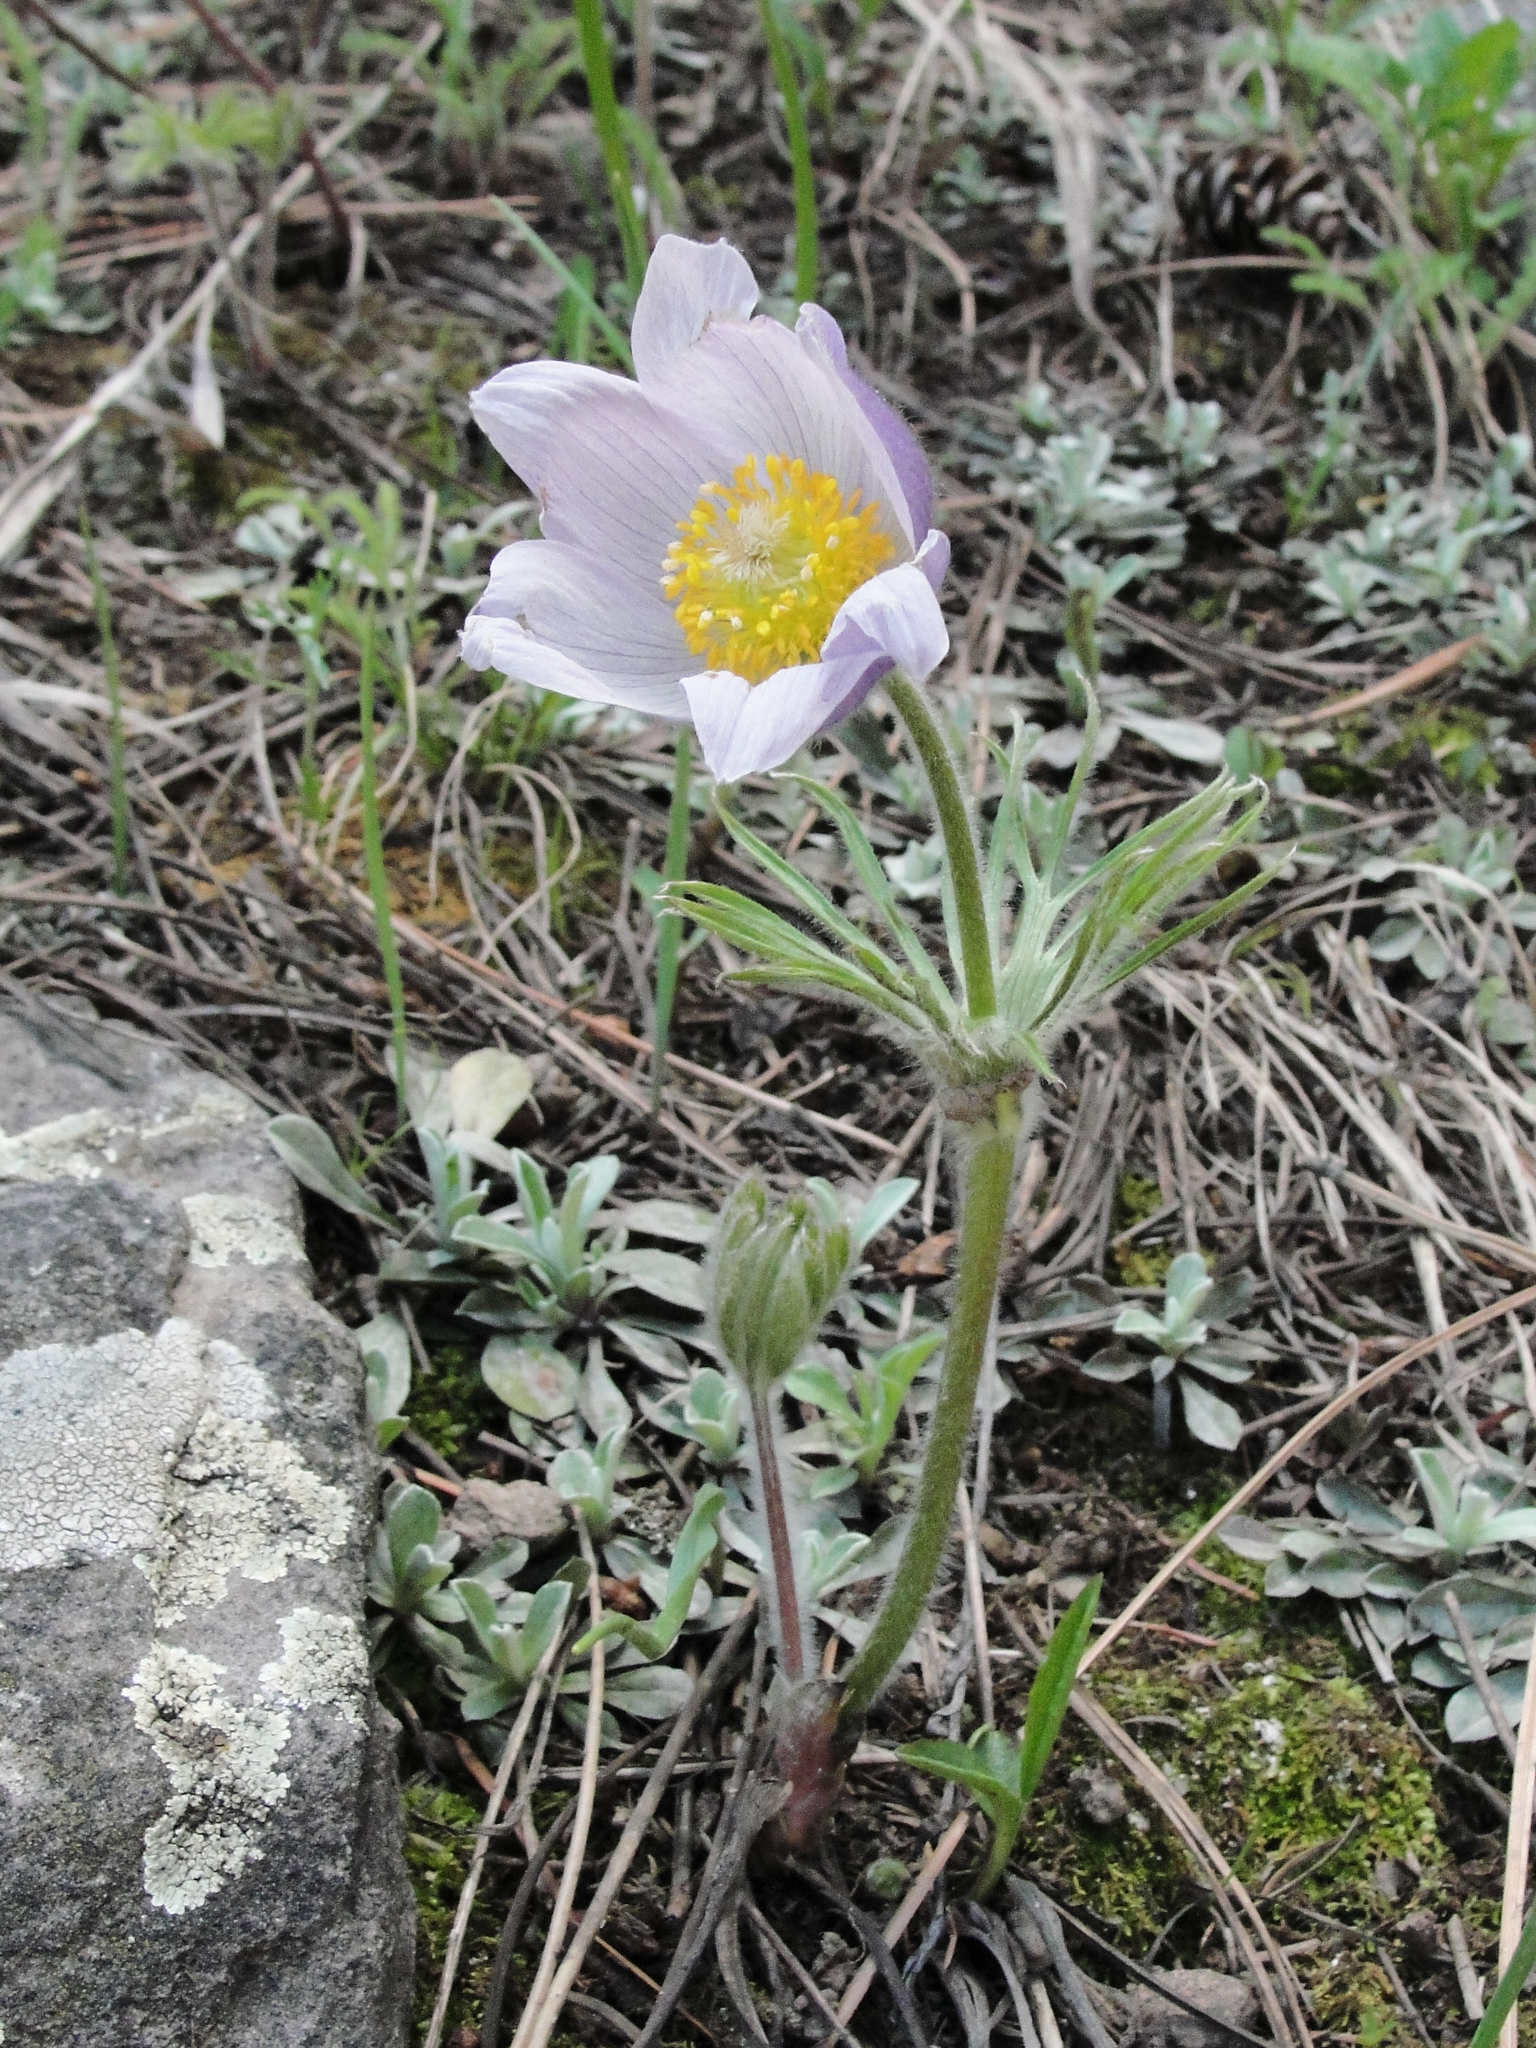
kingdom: Plantae
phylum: Tracheophyta
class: Magnoliopsida
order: Ranunculales
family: Ranunculaceae
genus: Pulsatilla
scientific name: Pulsatilla nuttalliana
